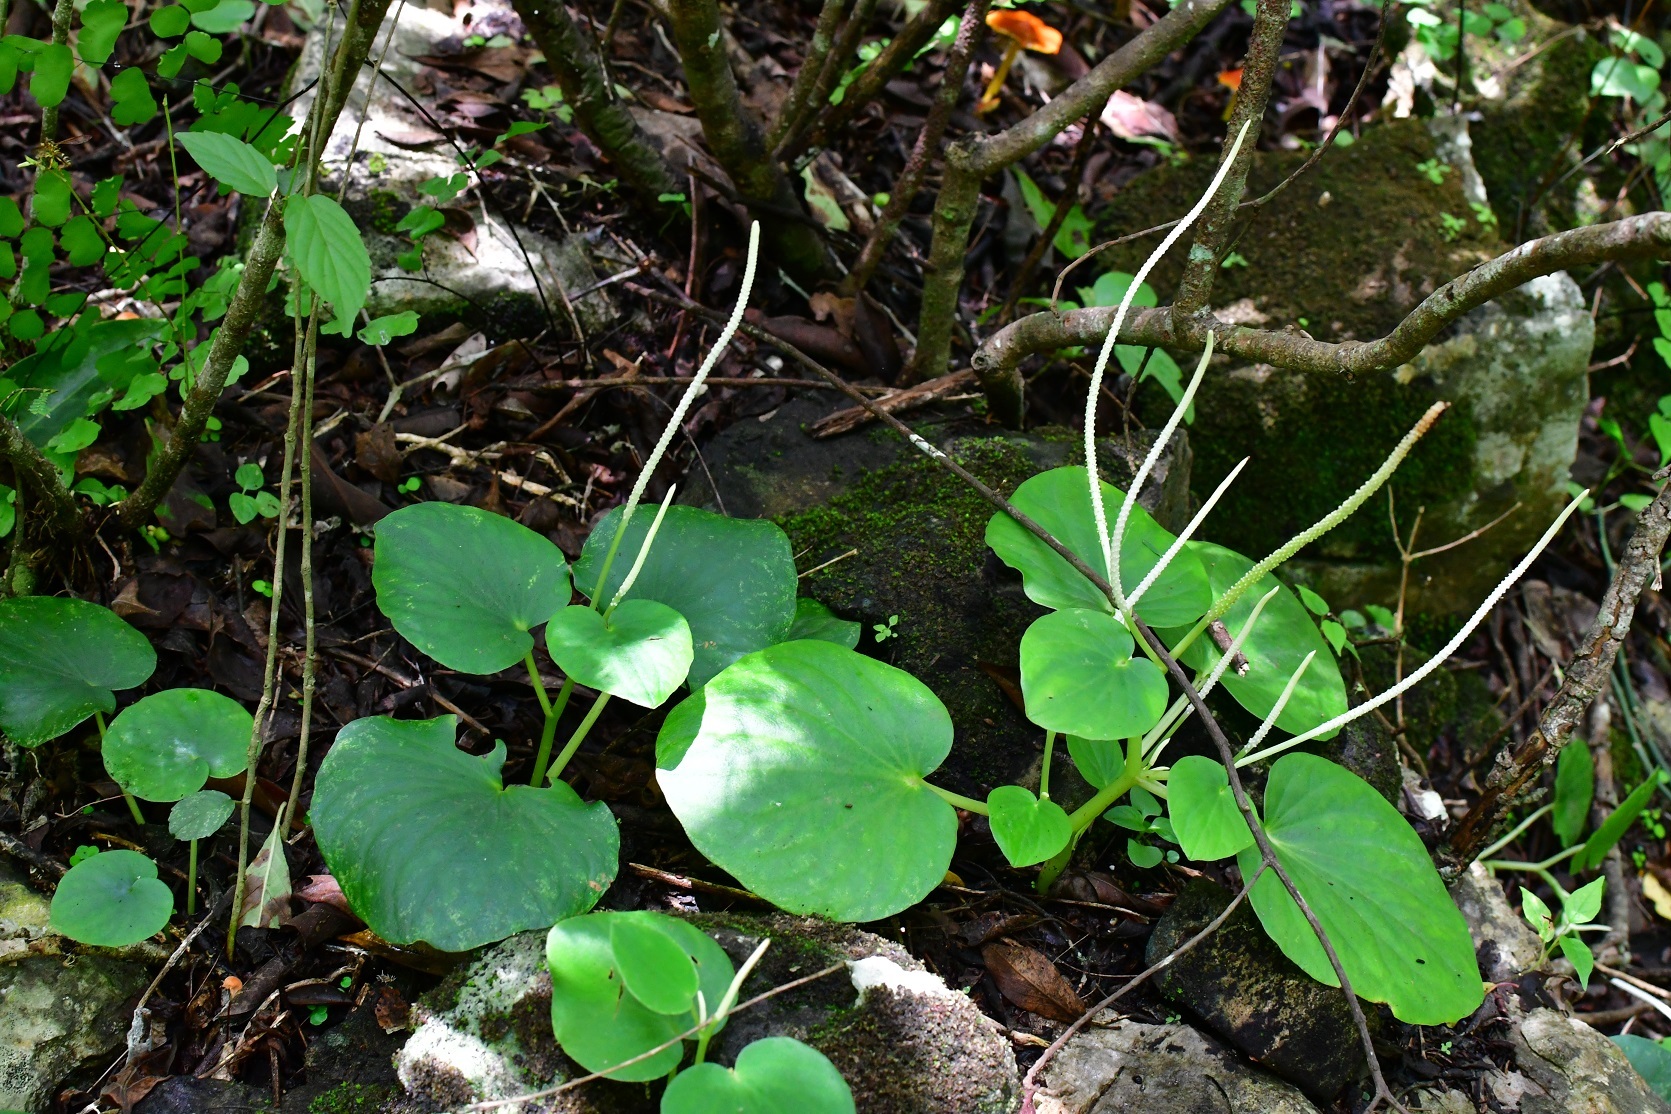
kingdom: Plantae
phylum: Tracheophyta
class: Magnoliopsida
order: Piperales
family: Piperaceae
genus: Peperomia
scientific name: Peperomia lanceolatopeltata
